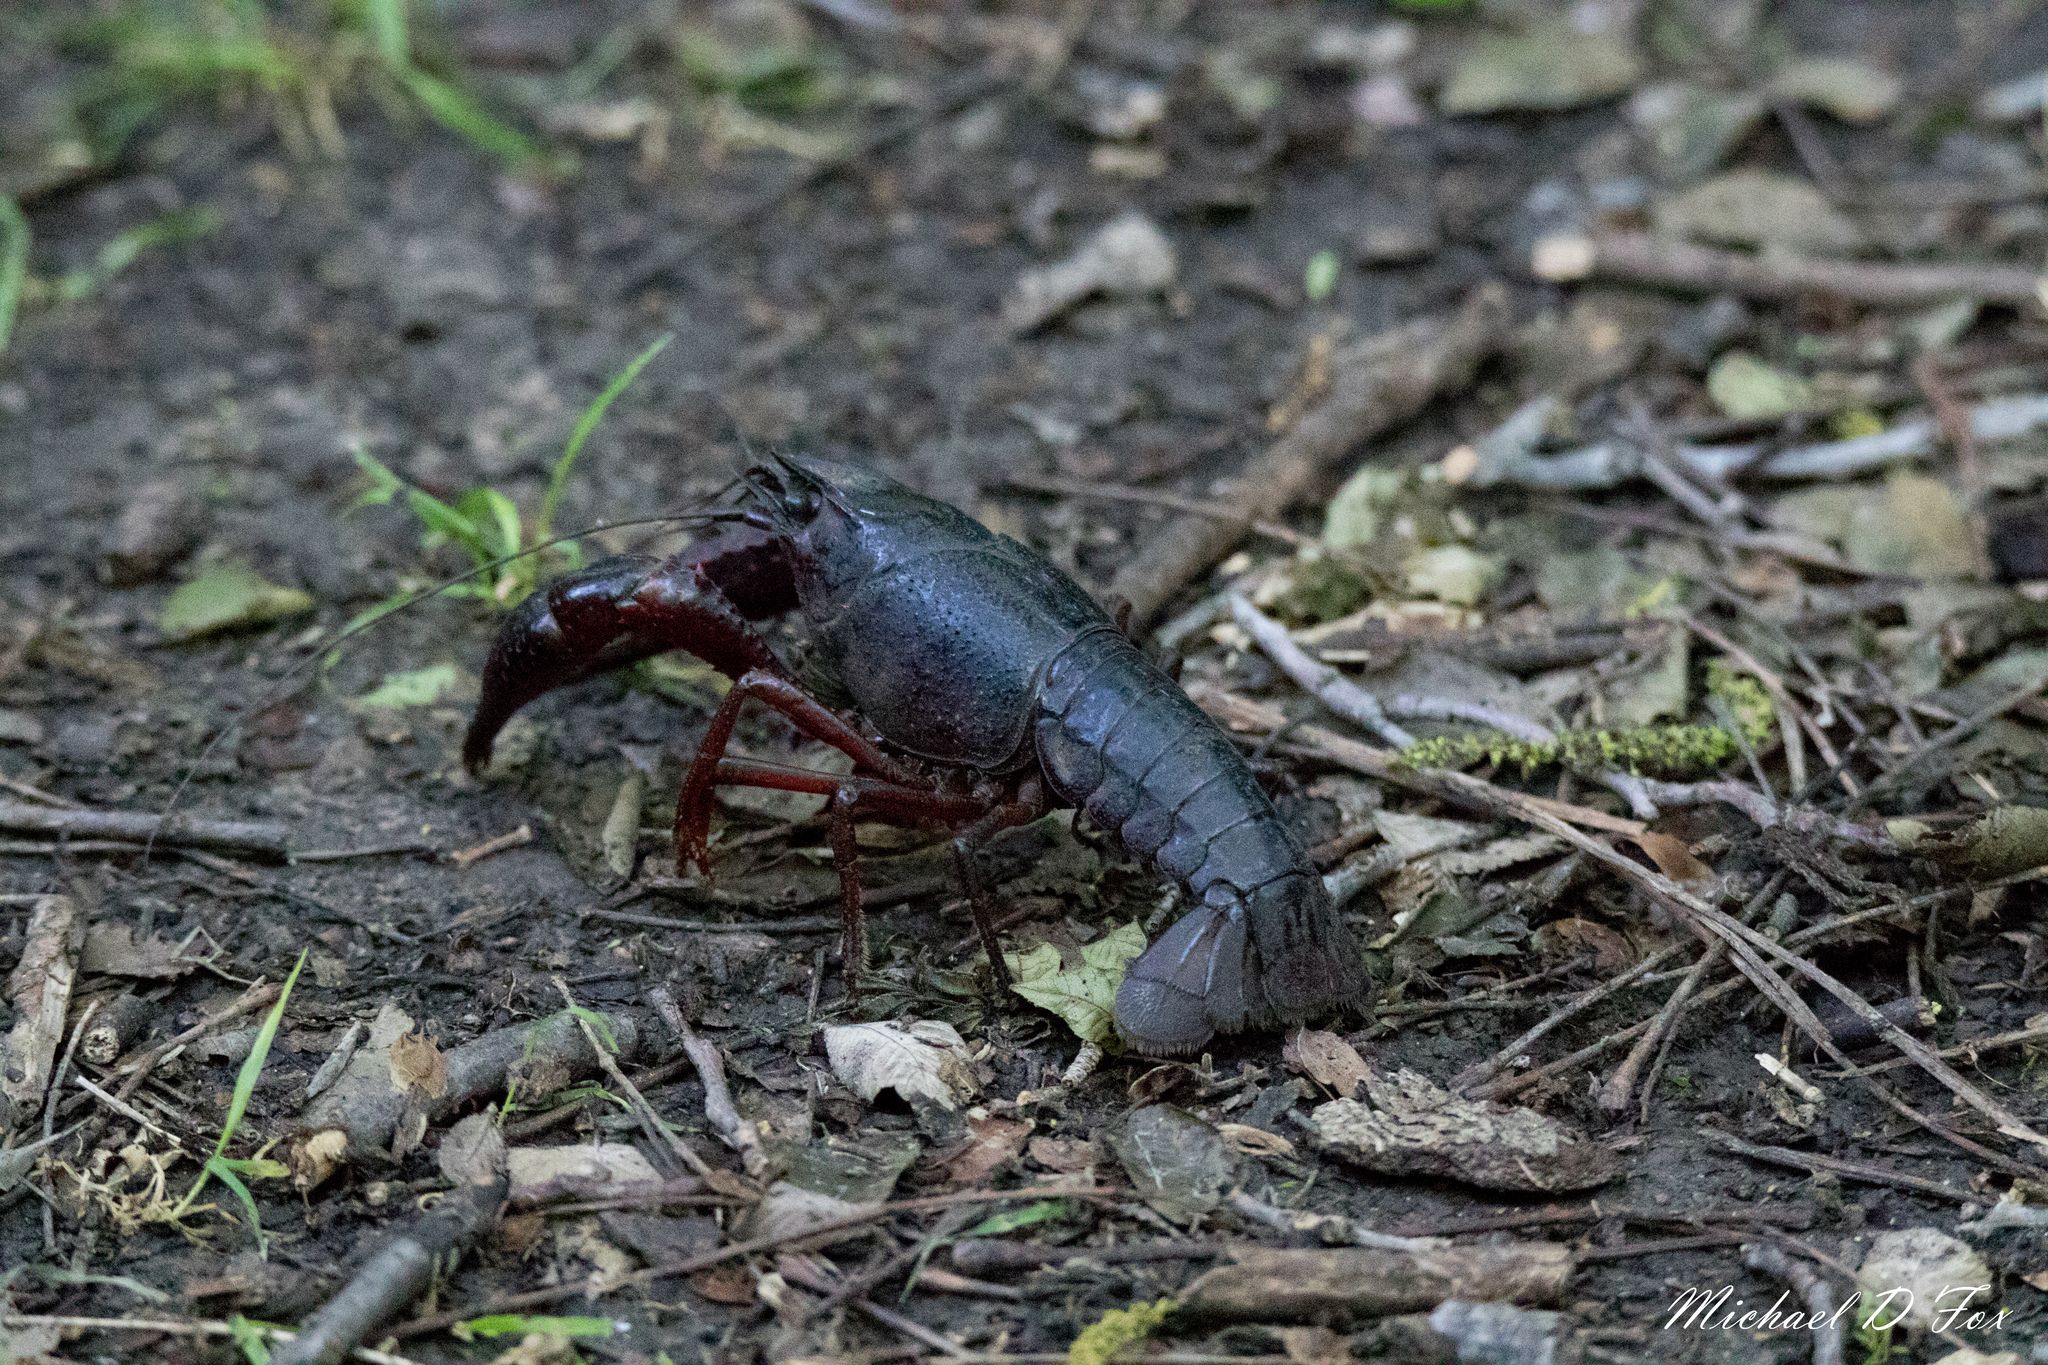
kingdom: Animalia
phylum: Arthropoda
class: Malacostraca
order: Decapoda
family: Cambaridae
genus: Procambarus
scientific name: Procambarus clarkii
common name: Red swamp crayfish
